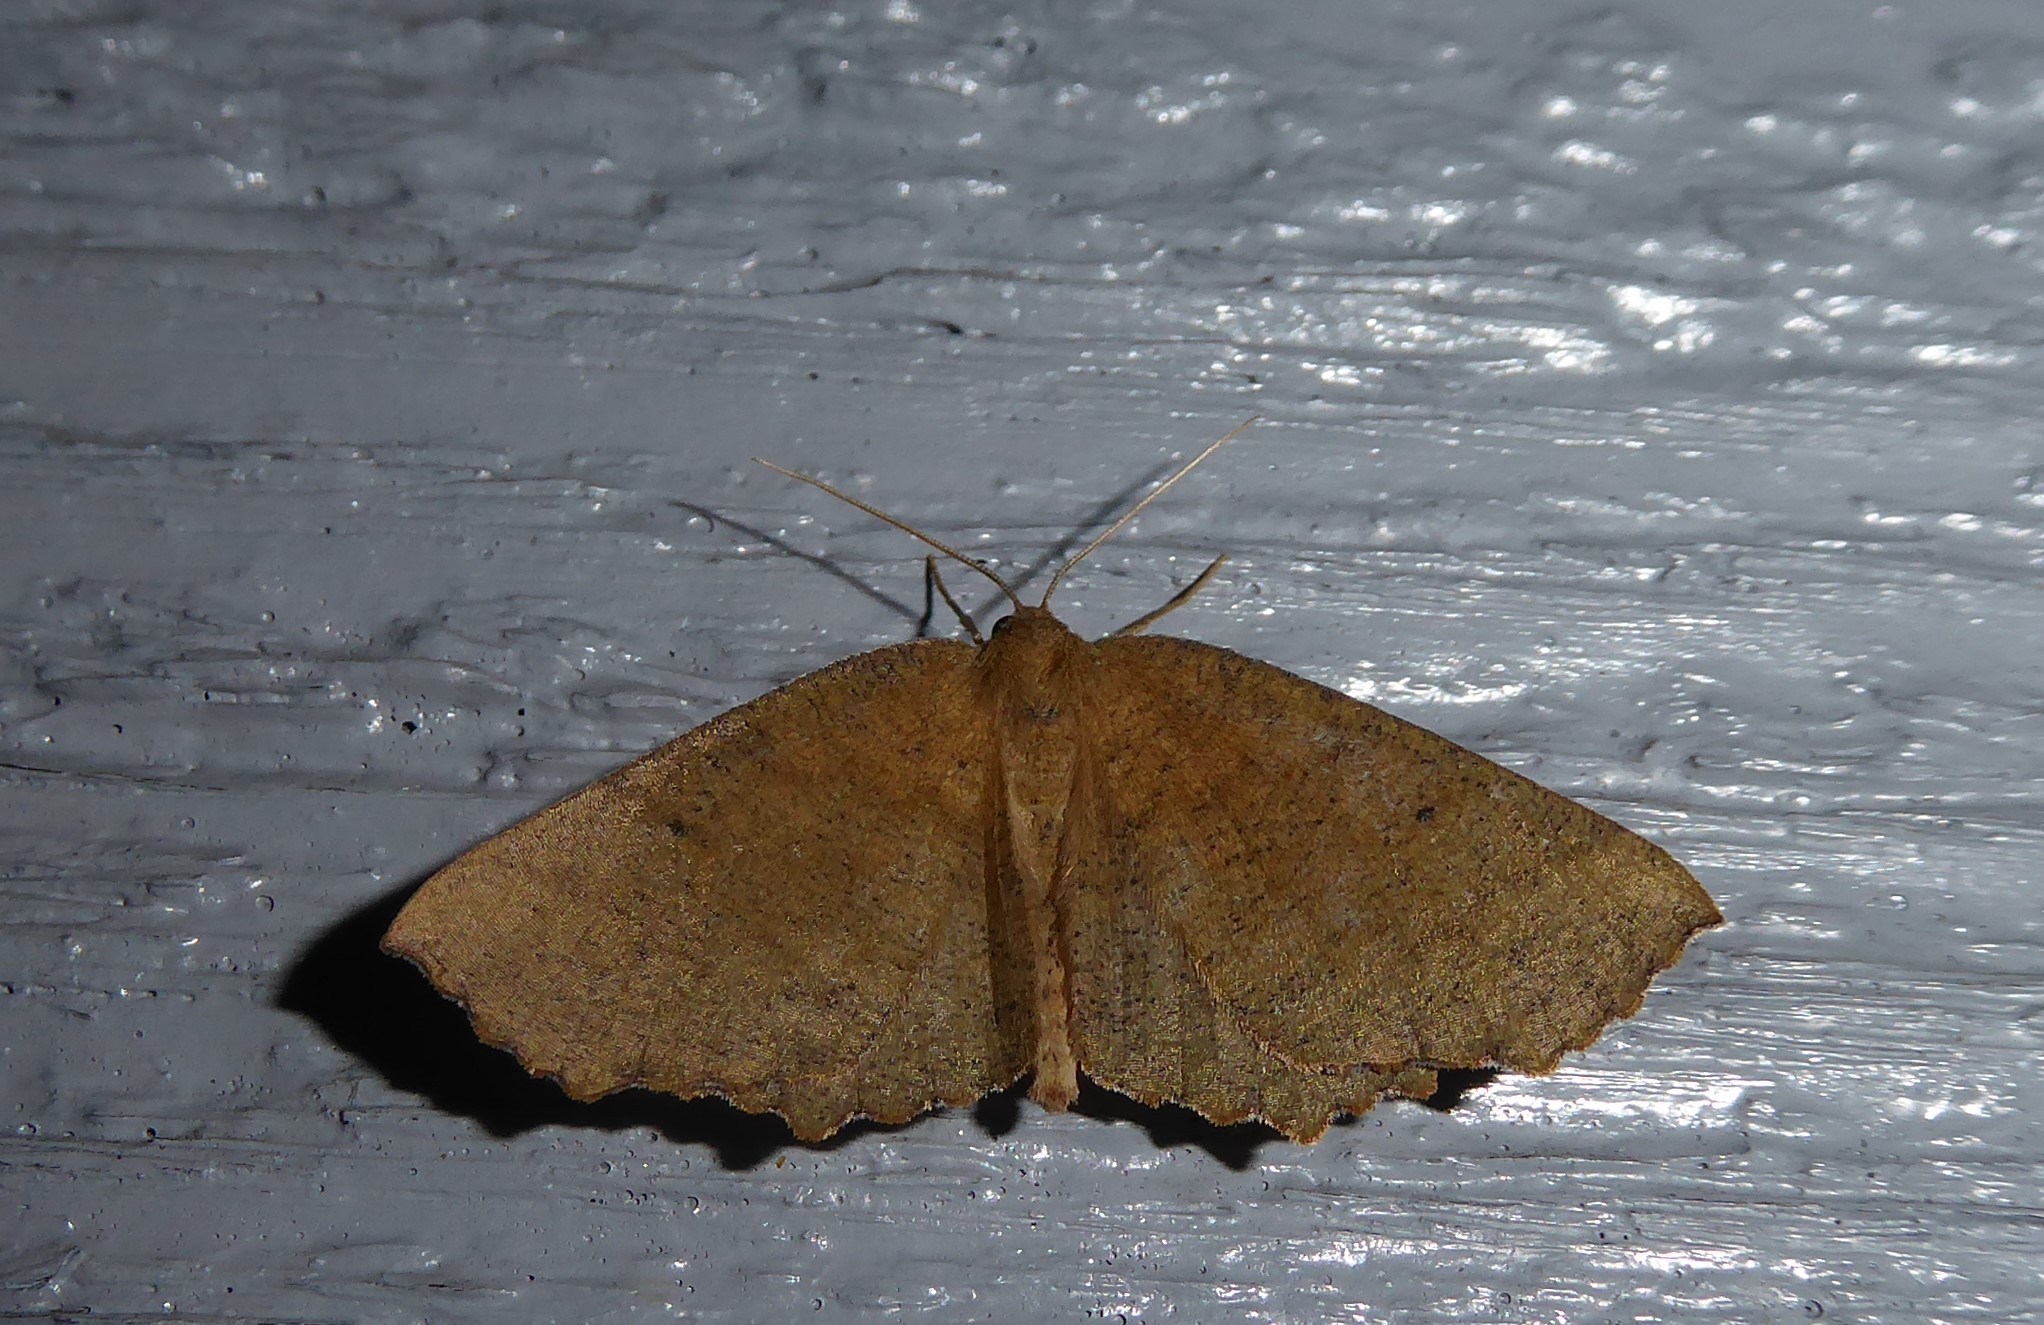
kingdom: Animalia
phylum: Arthropoda
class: Insecta
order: Lepidoptera
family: Geometridae
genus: Xyridacma
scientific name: Xyridacma ustaria
